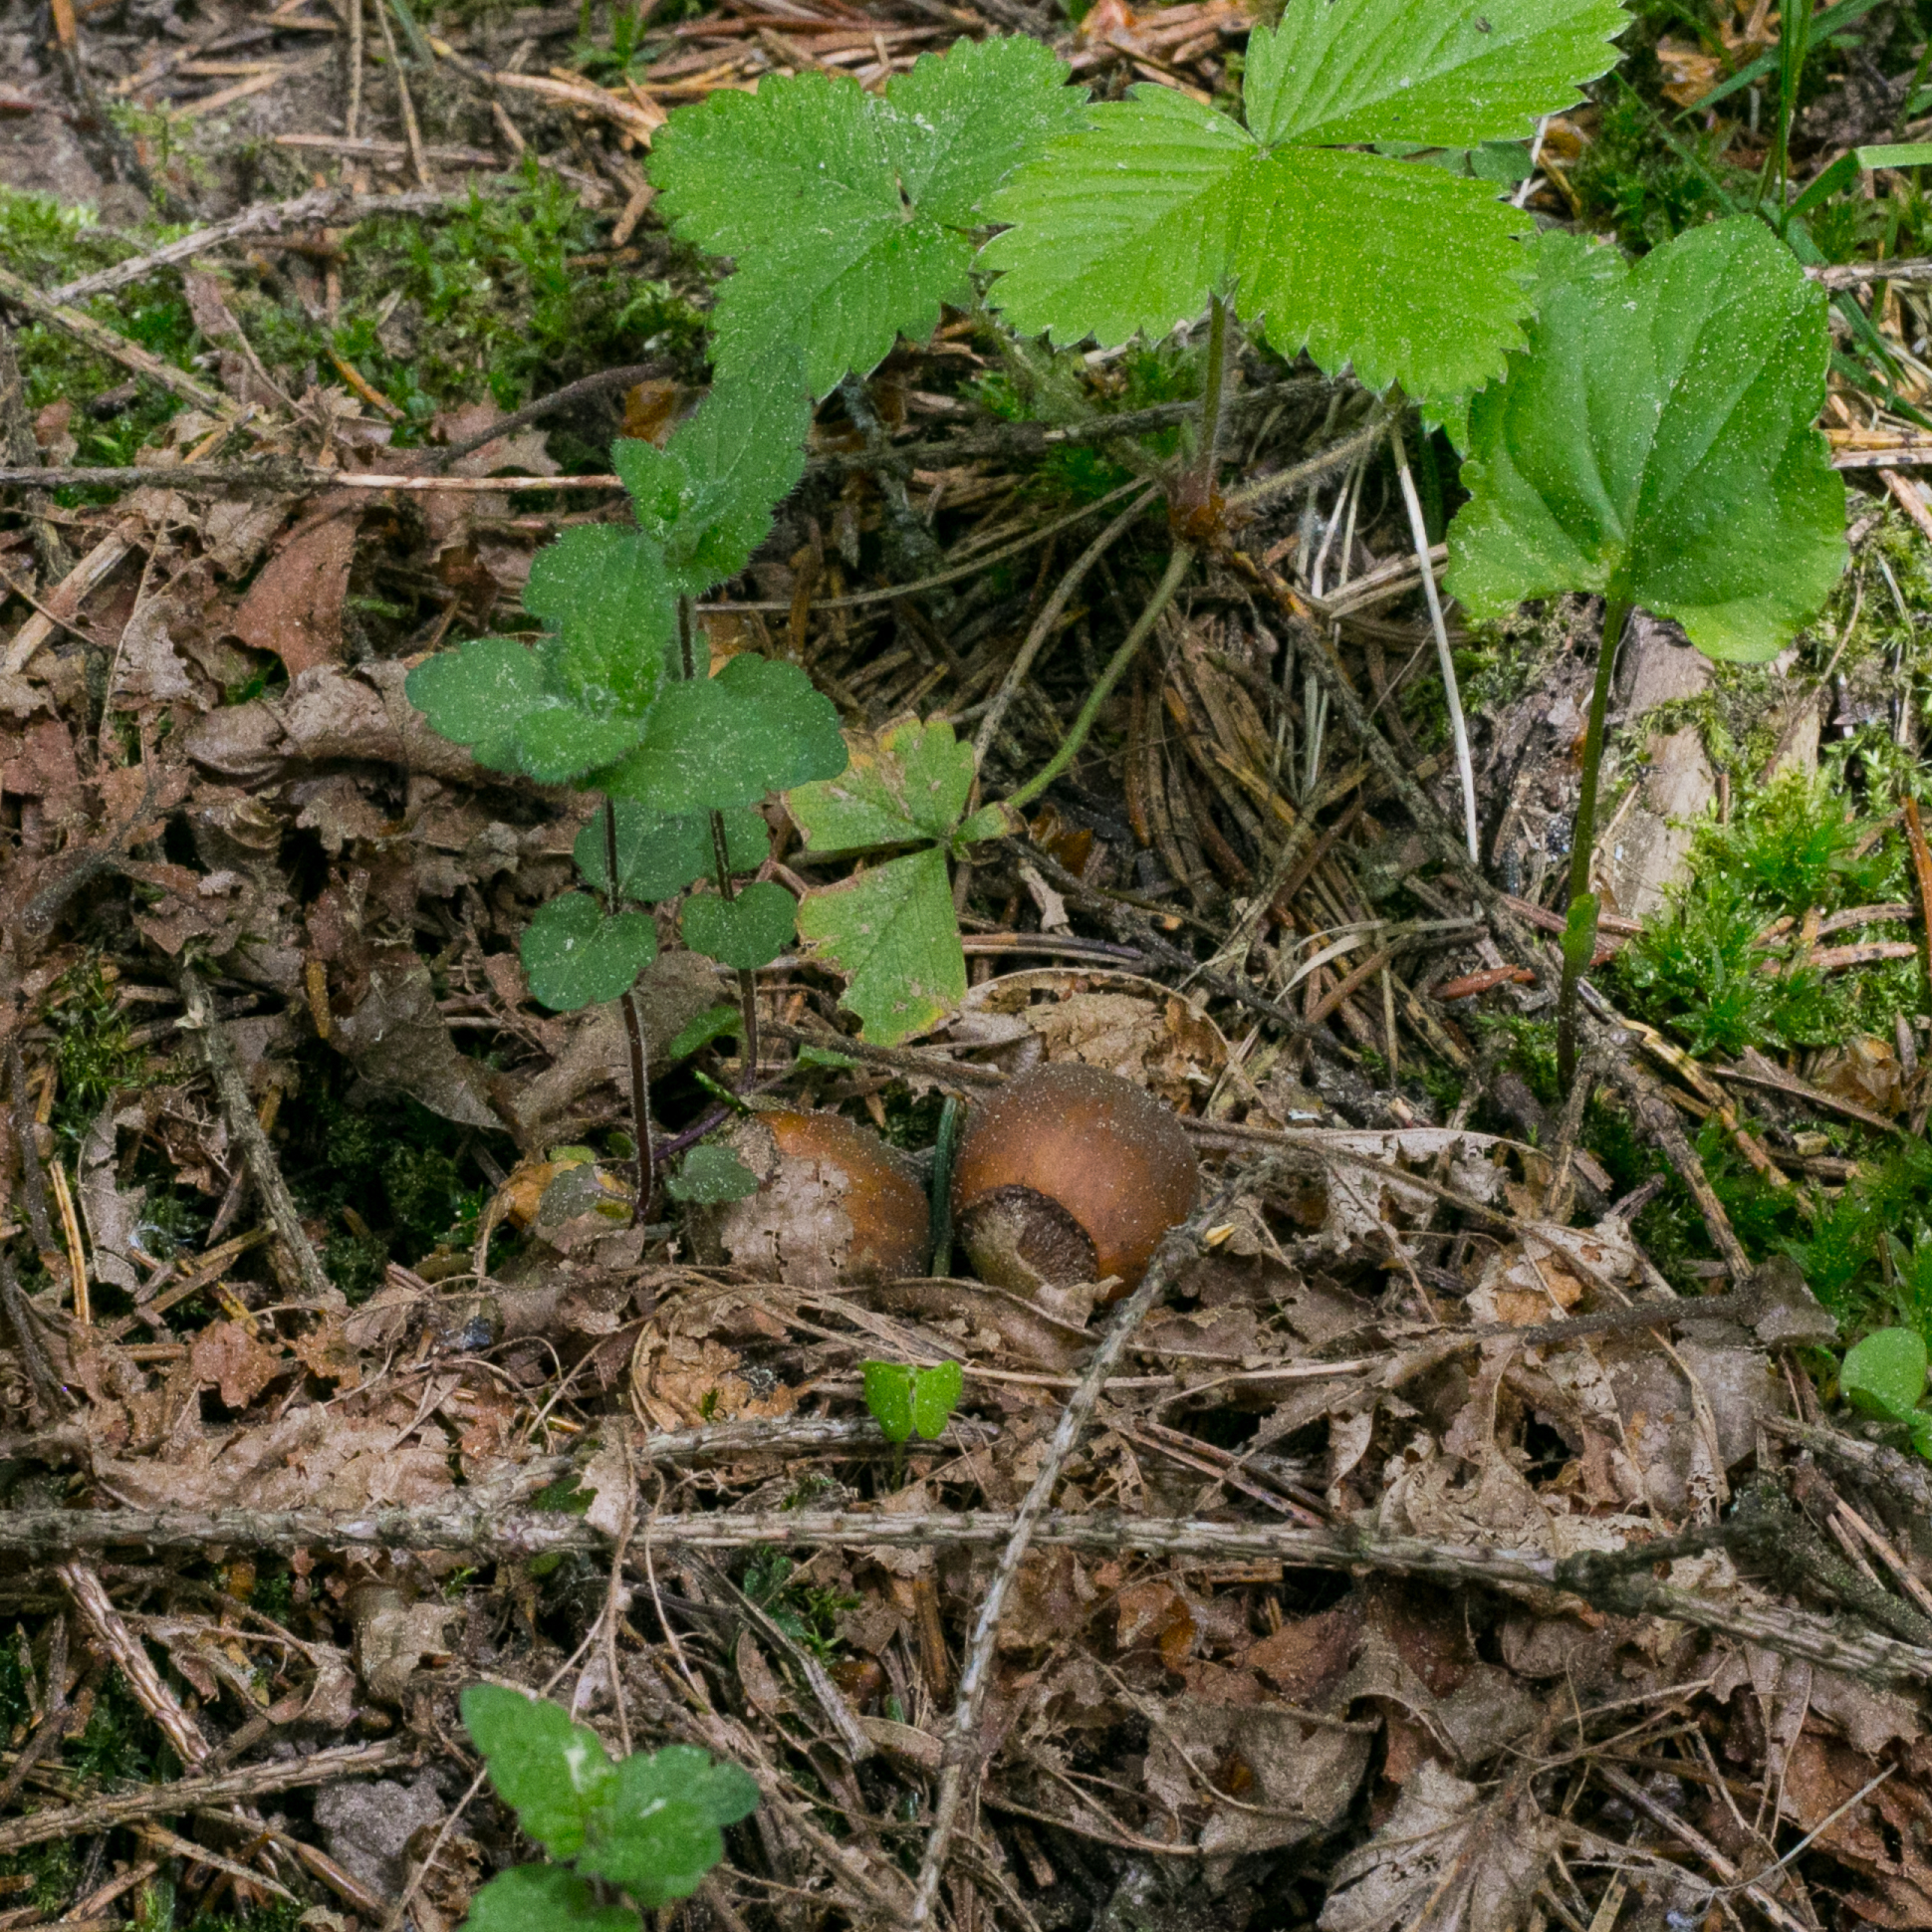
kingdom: Plantae
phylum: Tracheophyta
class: Magnoliopsida
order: Fagales
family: Betulaceae
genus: Corylus
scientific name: Corylus avellana
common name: European hazel
